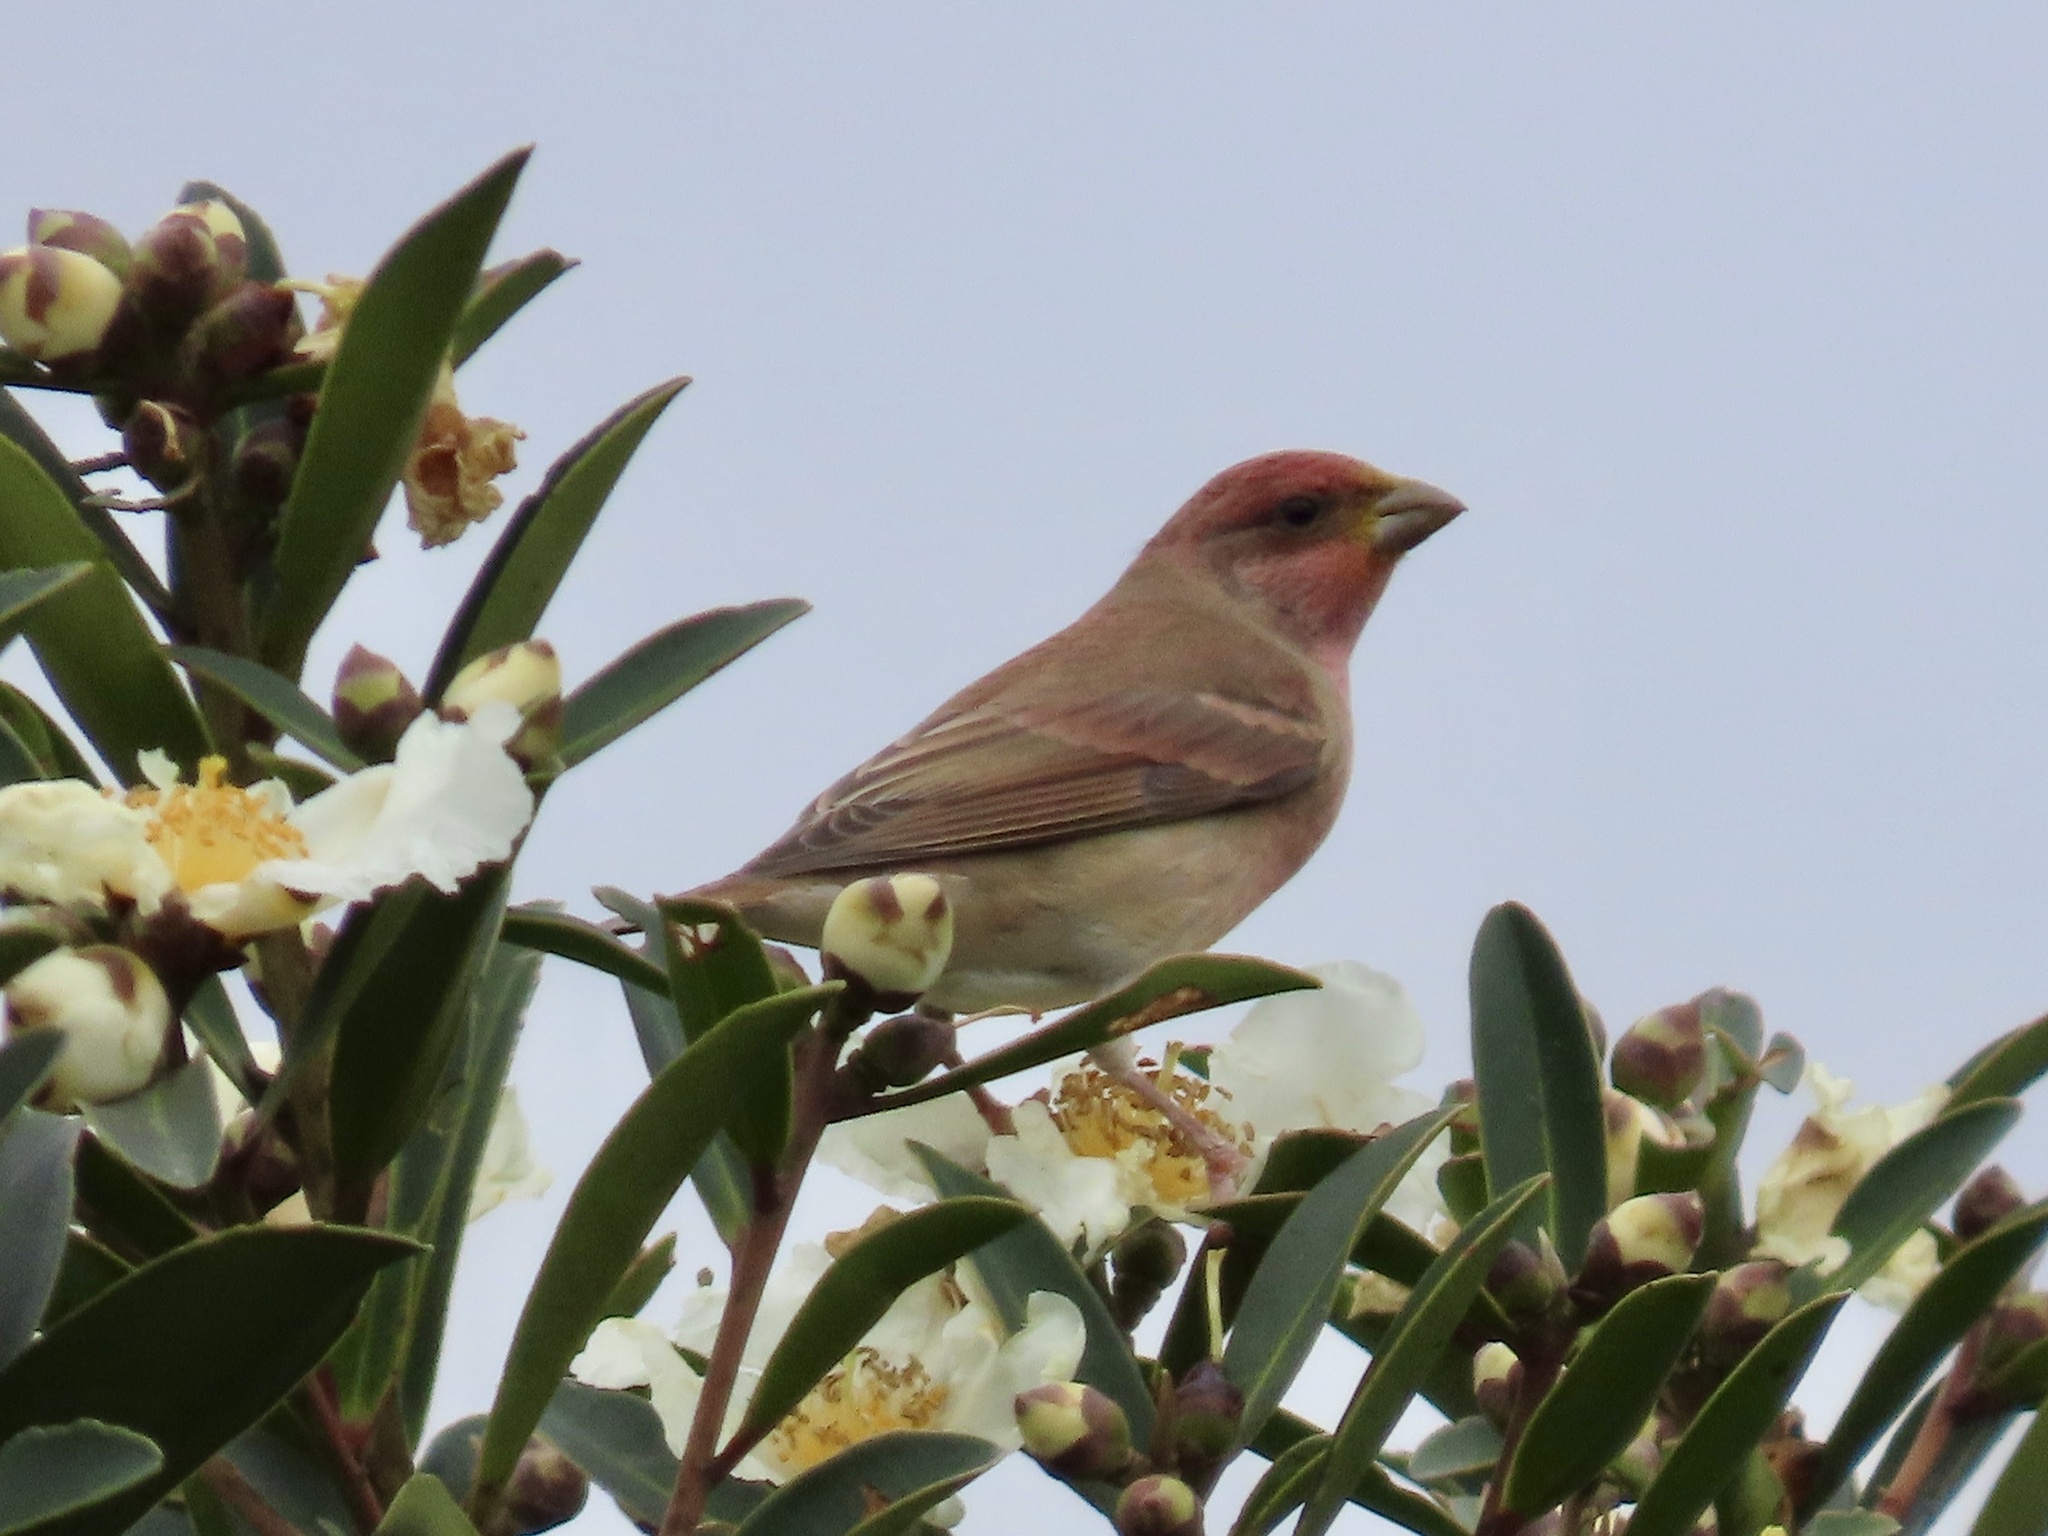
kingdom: Animalia
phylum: Chordata
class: Aves
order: Passeriformes
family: Fringillidae
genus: Carpodacus
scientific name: Carpodacus erythrinus
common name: Common rosefinch
